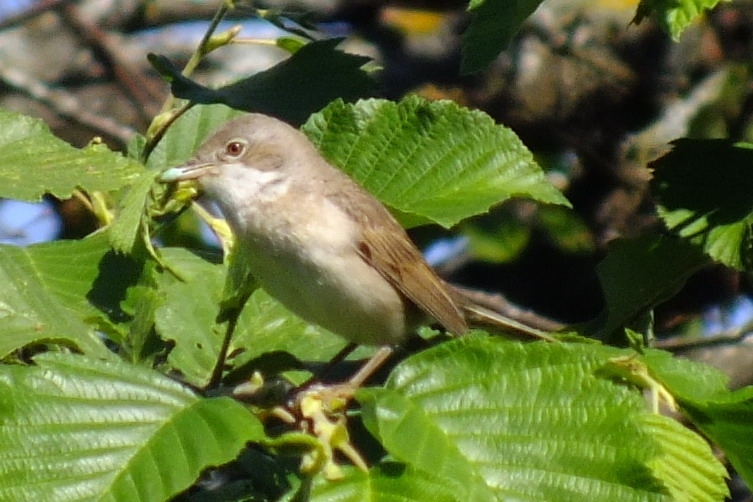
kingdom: Animalia
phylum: Chordata
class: Aves
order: Passeriformes
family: Sylviidae
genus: Sylvia
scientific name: Sylvia communis
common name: Common whitethroat
